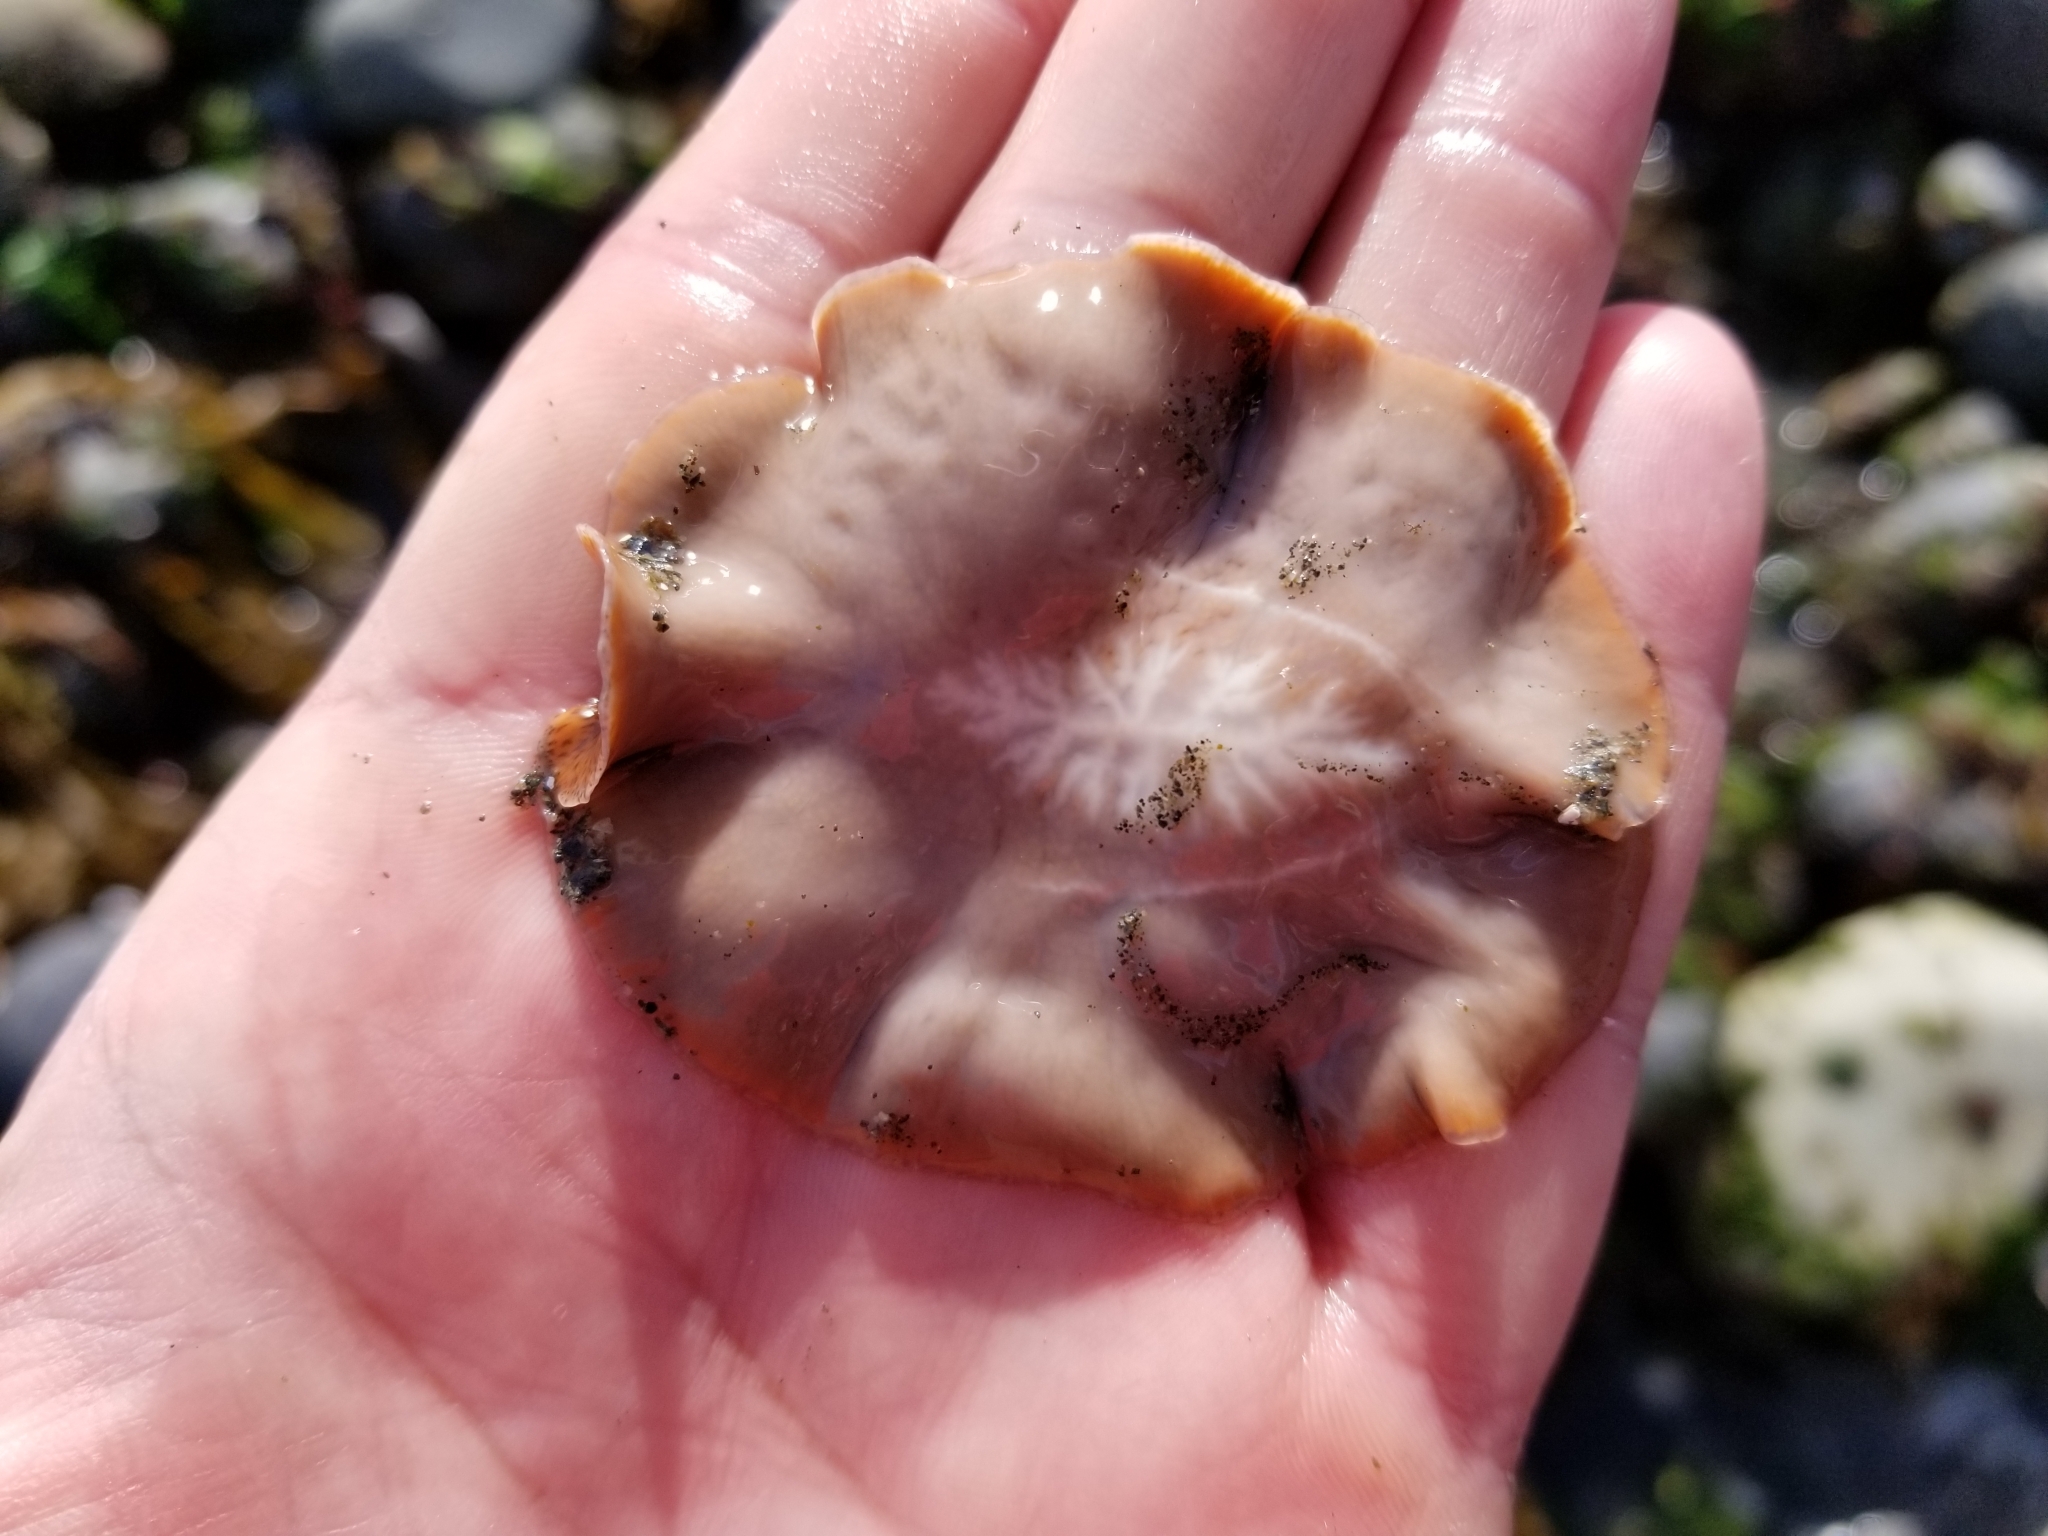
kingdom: Animalia
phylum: Platyhelminthes
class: Turbellaria
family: Callioplanidae
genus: Kaburakia
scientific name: Kaburakia excelsa
